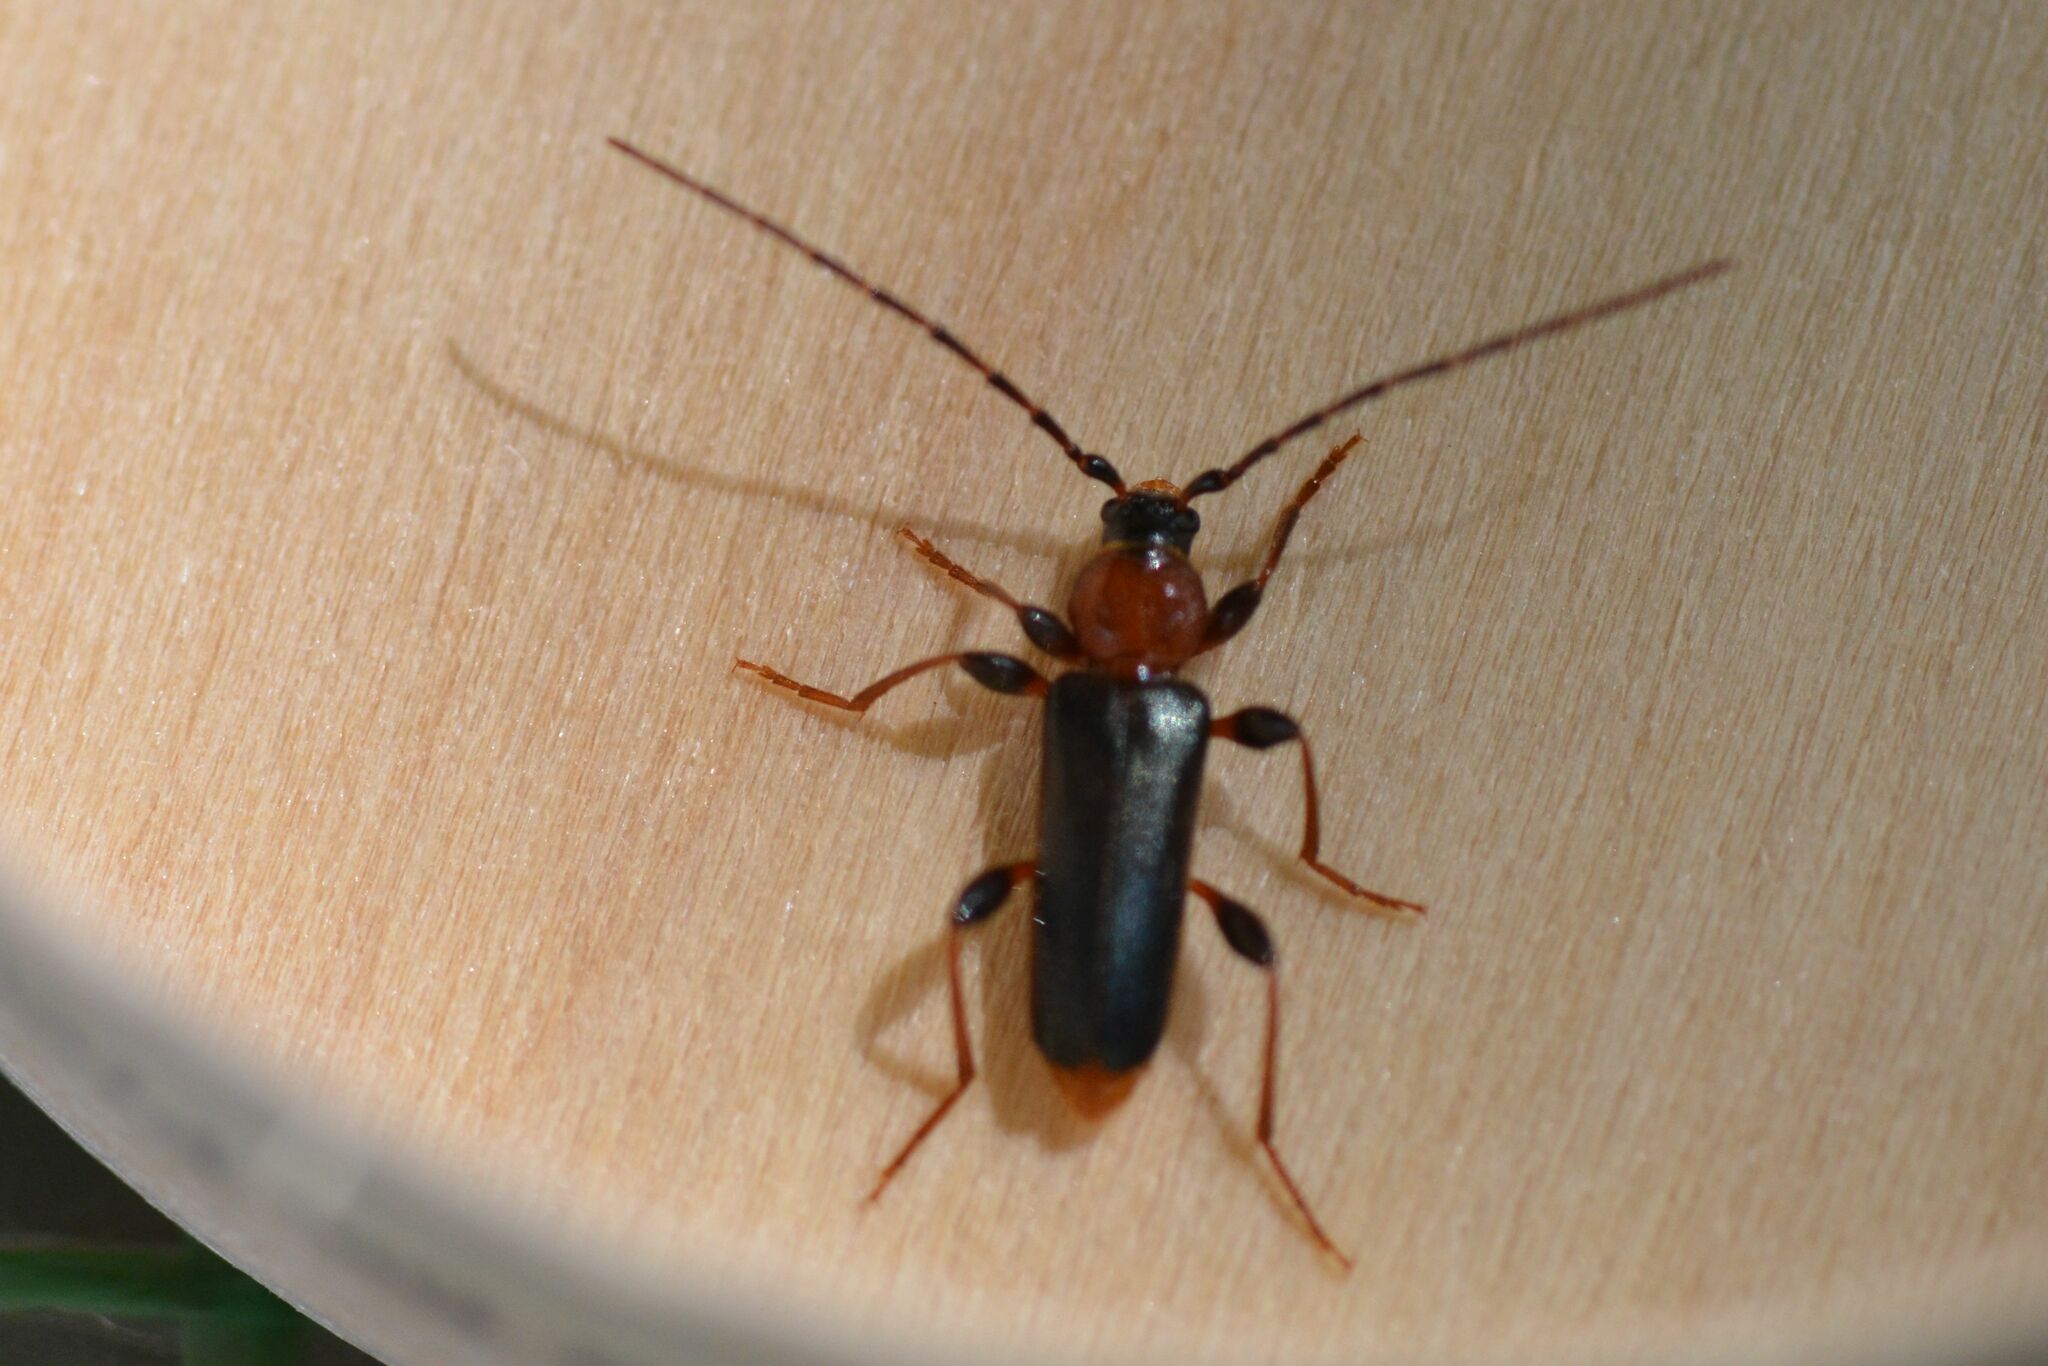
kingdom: Animalia
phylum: Arthropoda
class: Insecta
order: Coleoptera
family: Cerambycidae
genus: Phymatodes
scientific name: Phymatodes testaceus
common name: Long-horned beetle
